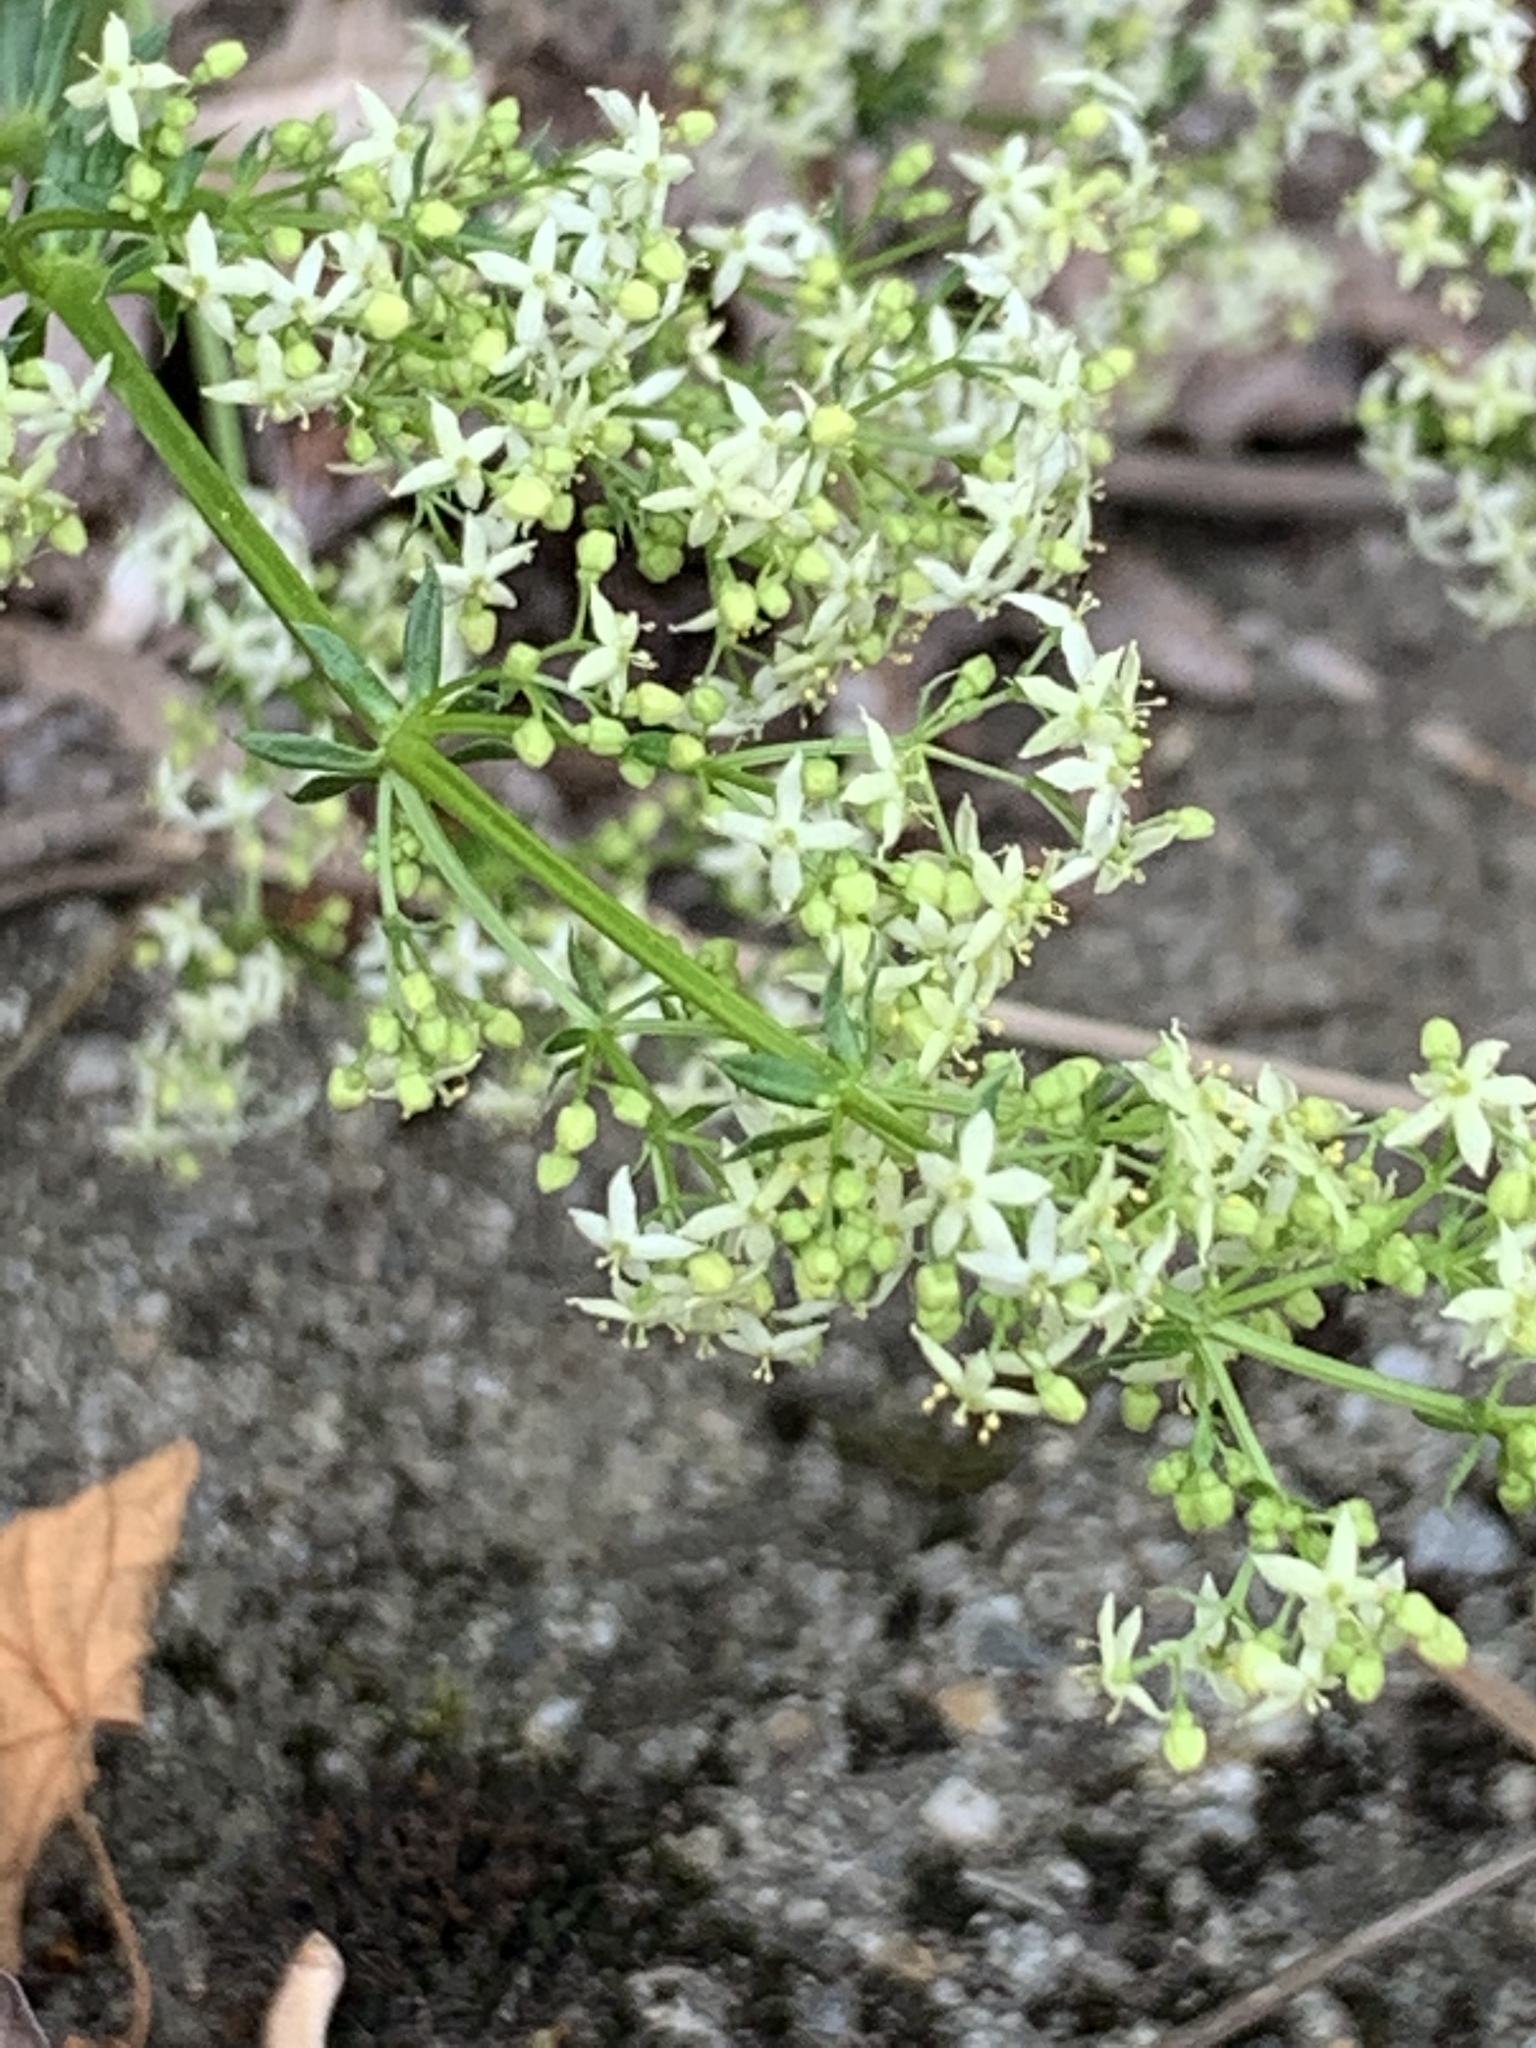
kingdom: Plantae
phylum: Tracheophyta
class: Magnoliopsida
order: Gentianales
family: Rubiaceae
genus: Galium
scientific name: Galium album
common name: White bedstraw
